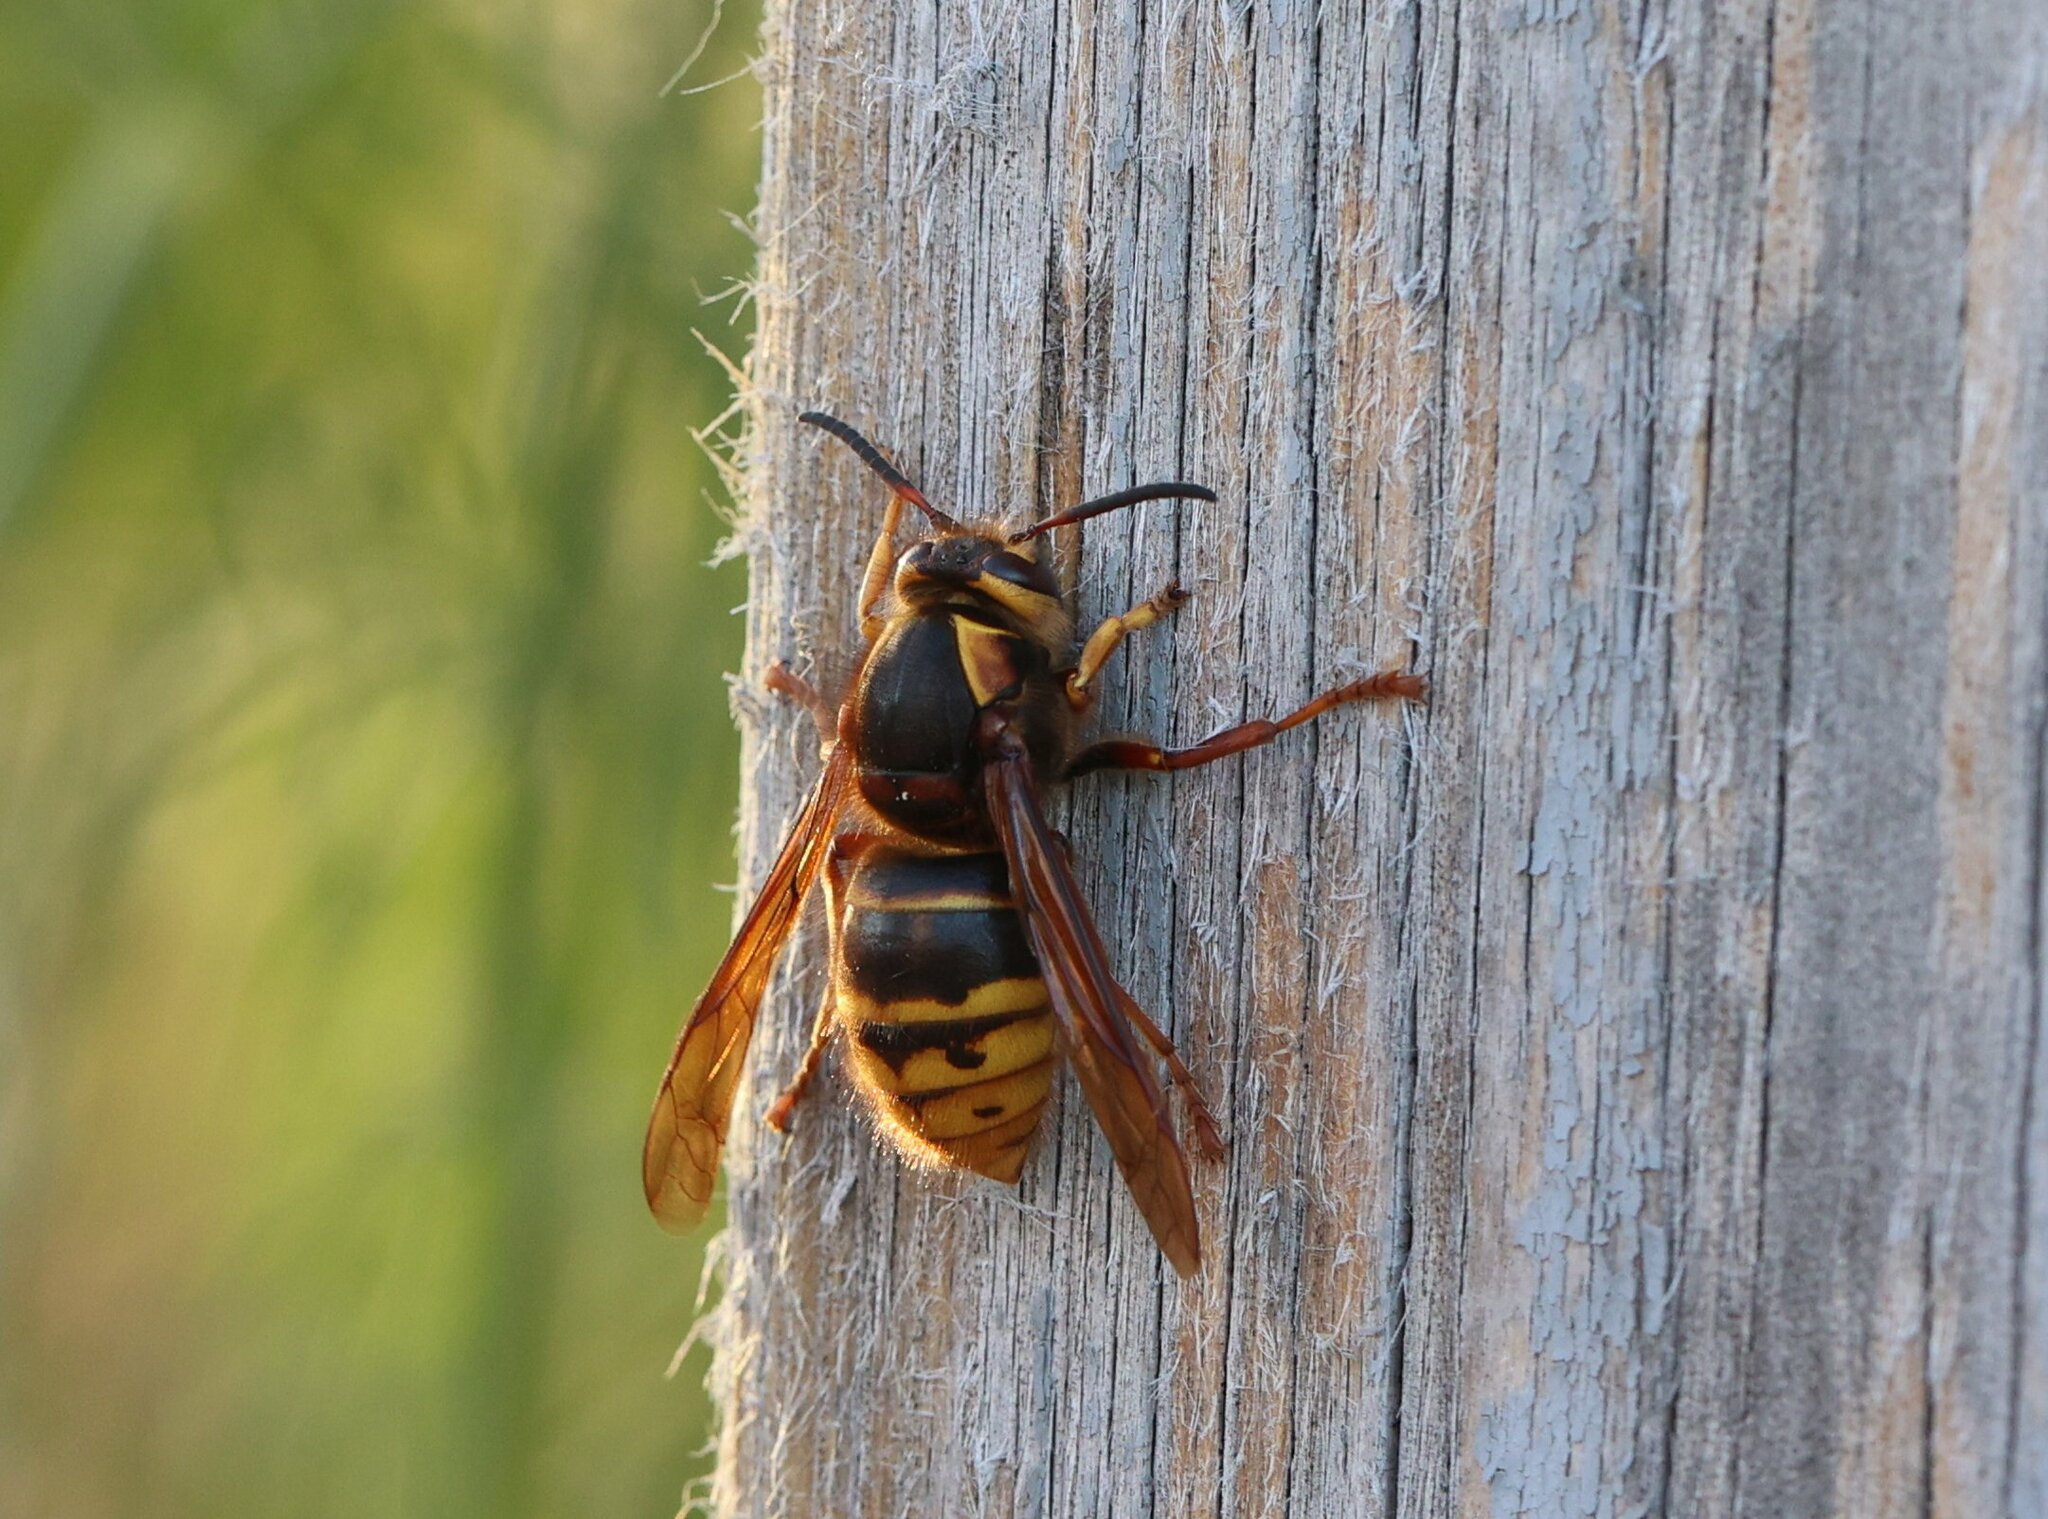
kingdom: Animalia
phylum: Arthropoda
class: Insecta
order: Hymenoptera
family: Vespidae
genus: Dolichovespula
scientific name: Dolichovespula media
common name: Median wasp
